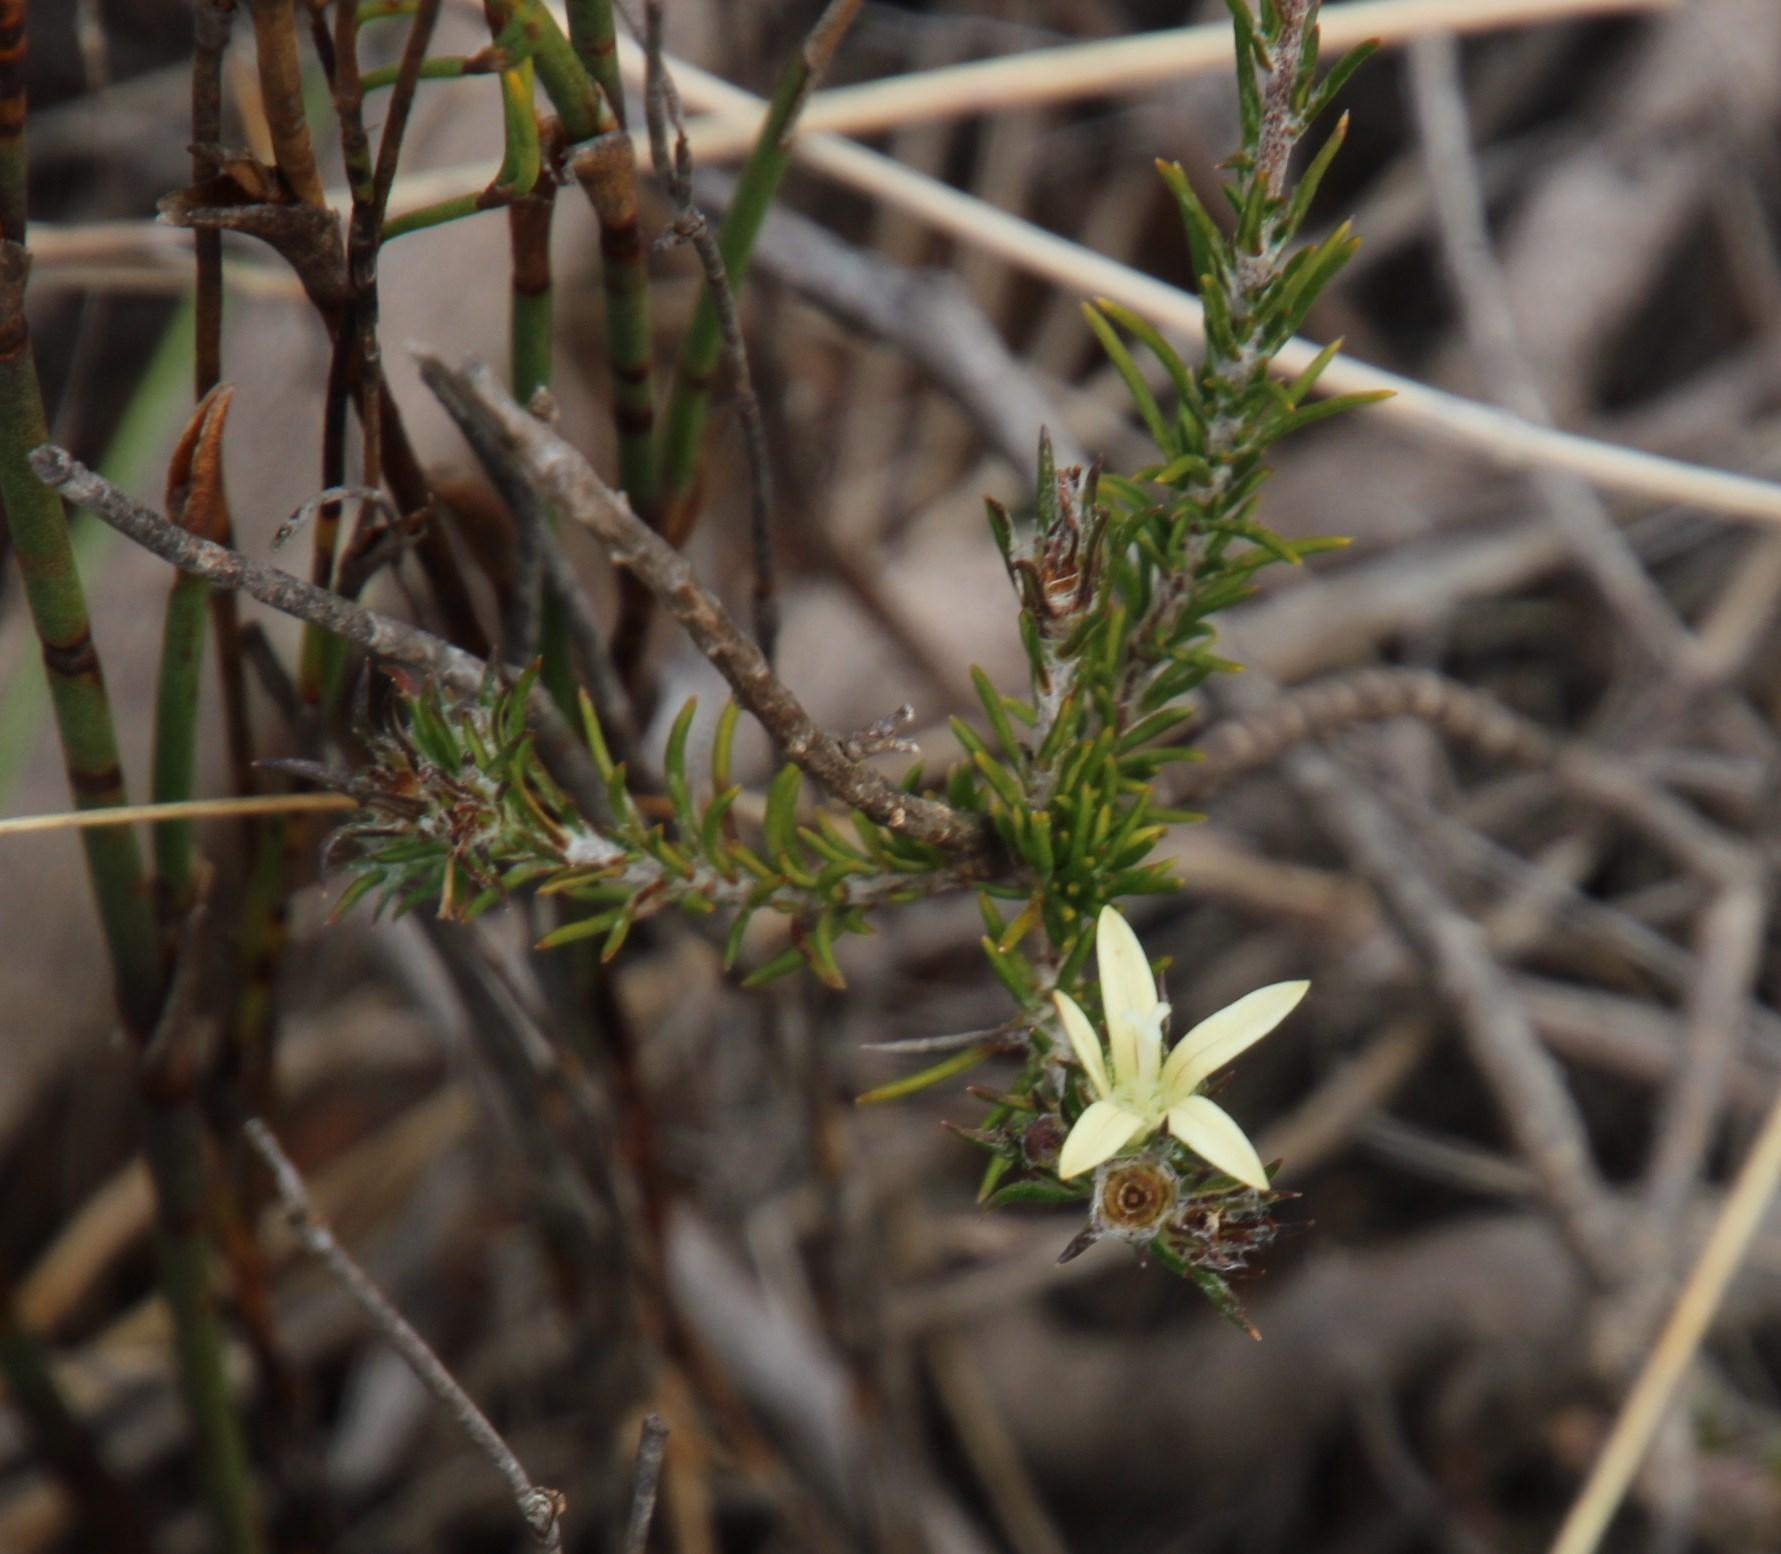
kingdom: Plantae
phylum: Tracheophyta
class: Magnoliopsida
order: Asterales
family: Campanulaceae
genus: Wahlenbergia
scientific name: Wahlenbergia cinerea
